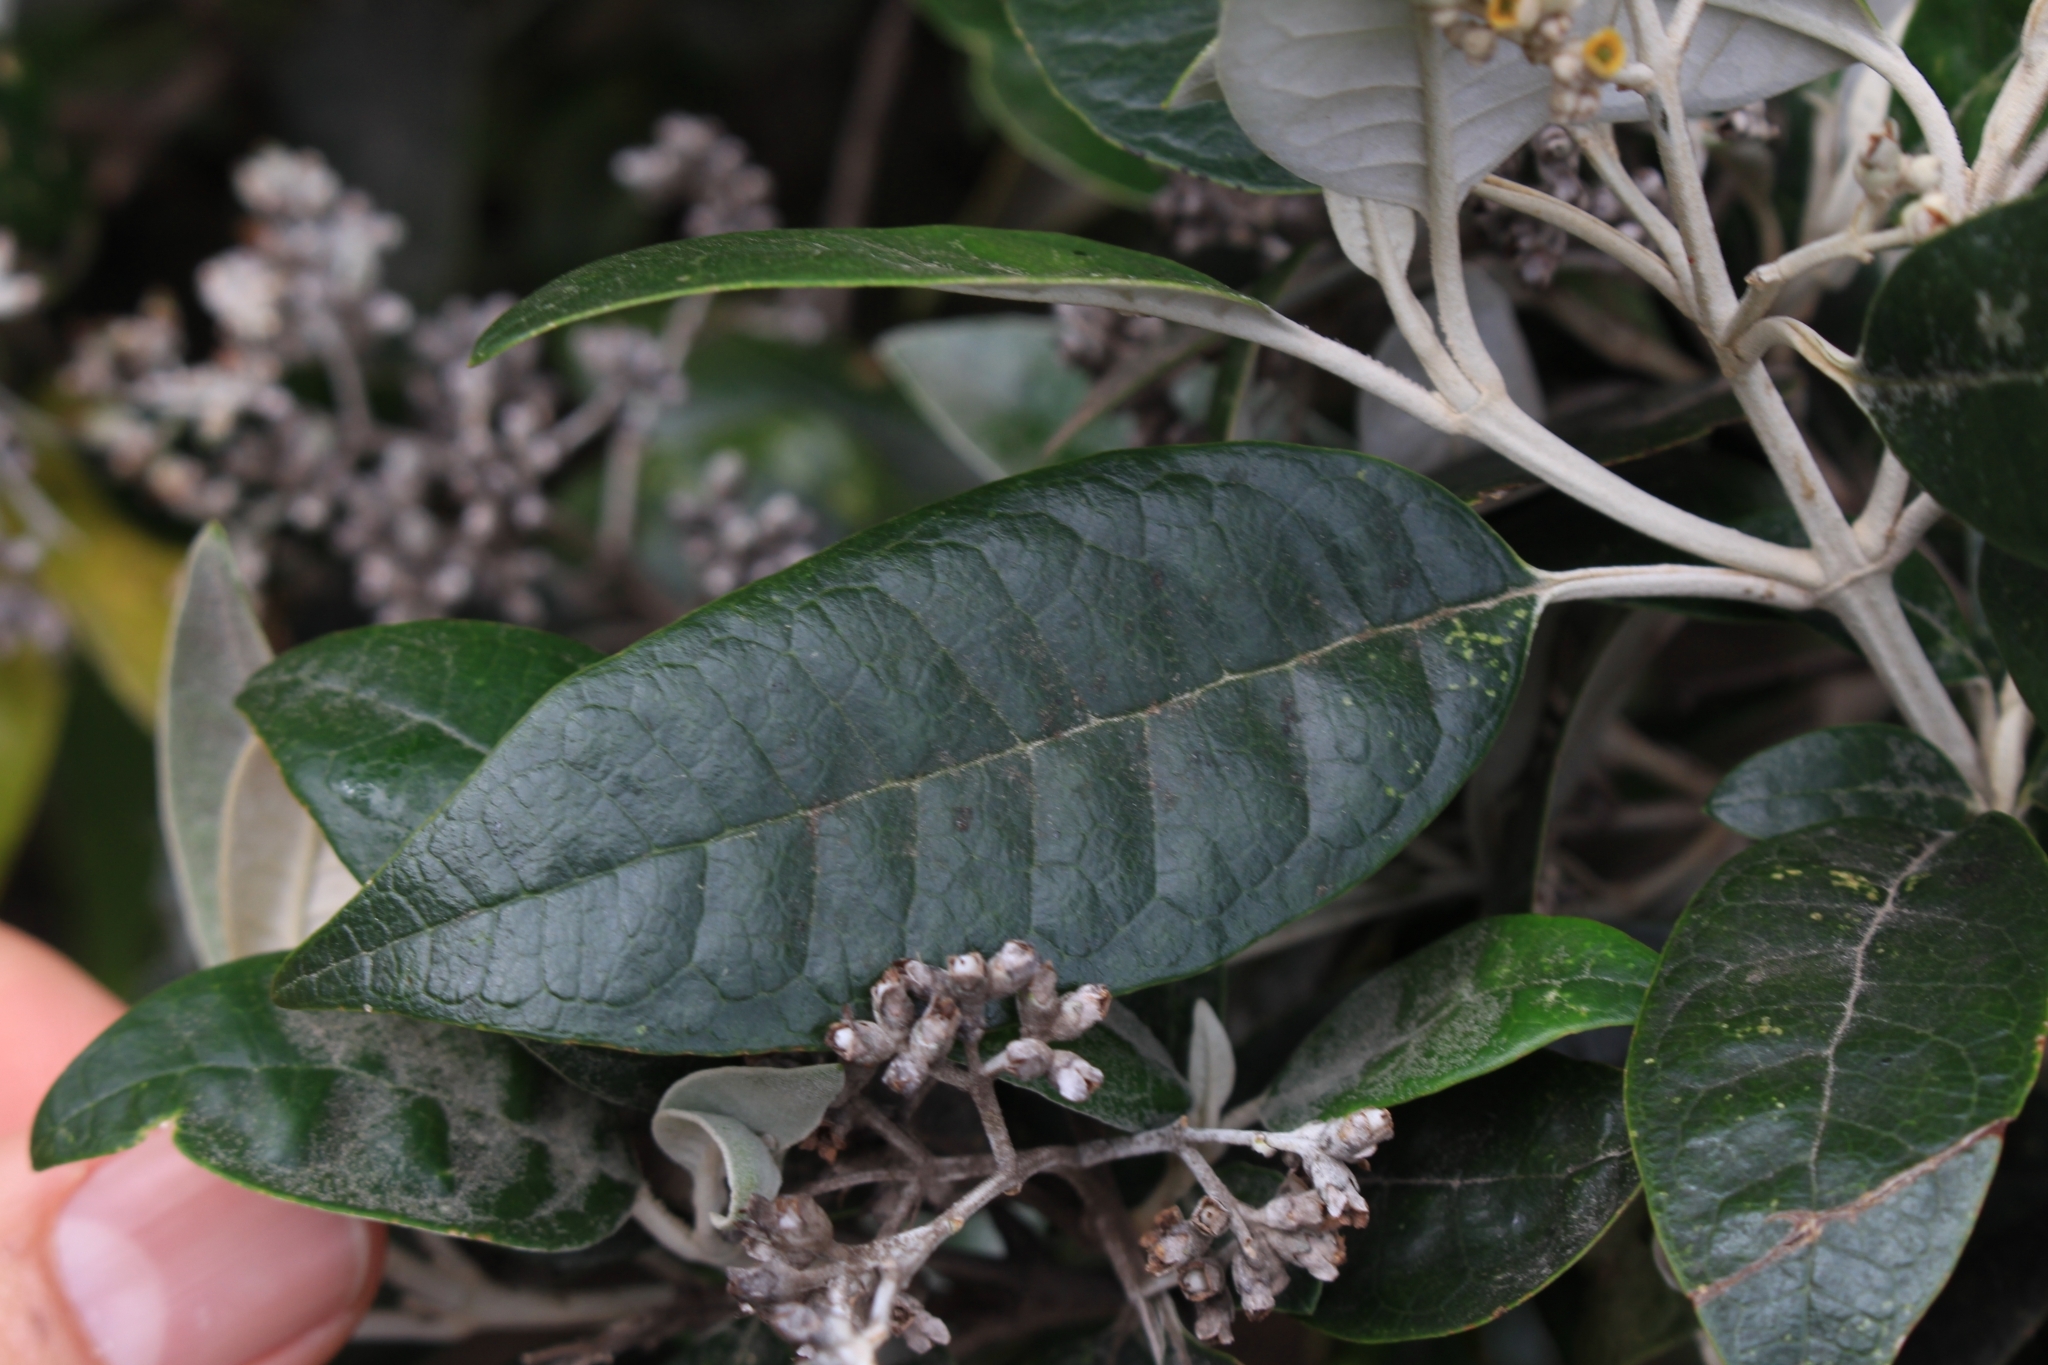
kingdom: Plantae
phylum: Tracheophyta
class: Magnoliopsida
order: Lamiales
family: Scrophulariaceae
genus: Buddleja
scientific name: Buddleja nitida
